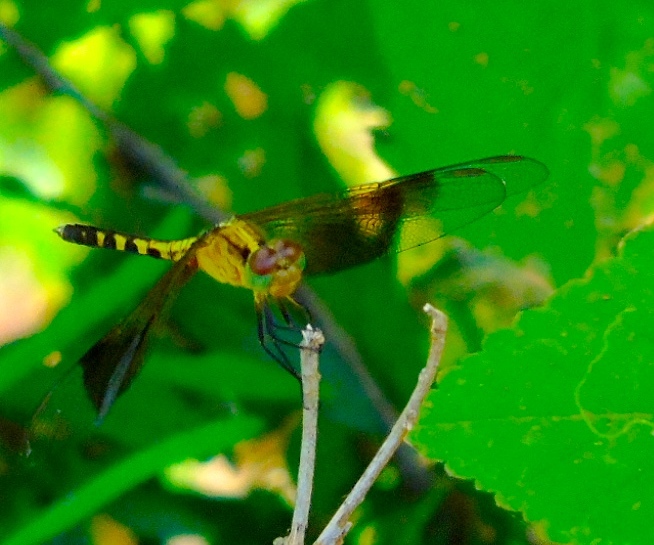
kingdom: Animalia
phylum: Arthropoda
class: Insecta
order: Odonata
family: Libellulidae
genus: Erythrodiplax
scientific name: Erythrodiplax funerea
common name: Black-winged dragonlet
